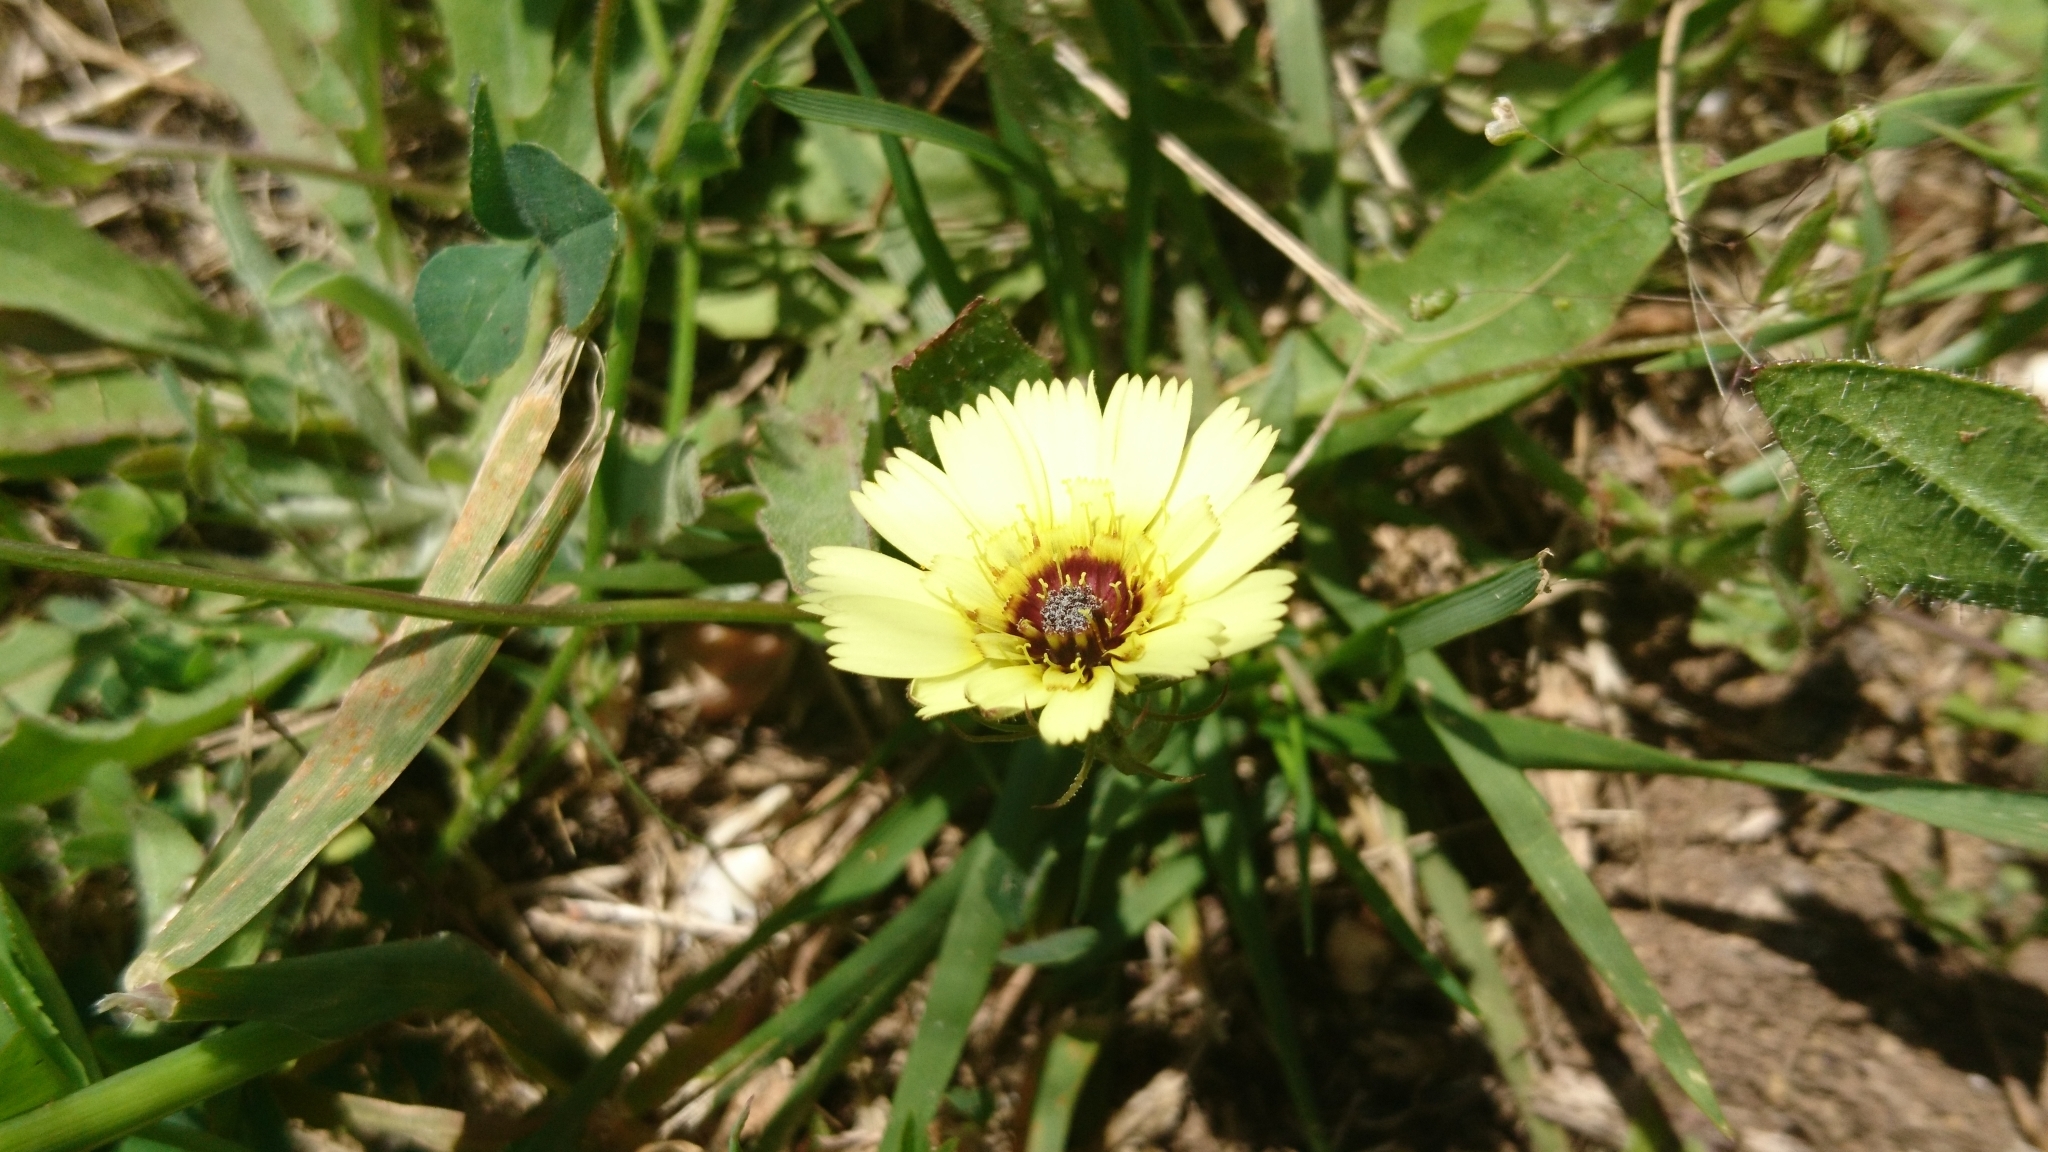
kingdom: Plantae
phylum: Tracheophyta
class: Magnoliopsida
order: Asterales
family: Asteraceae
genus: Tolpis
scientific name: Tolpis barbata
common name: Yellow hawkweed
